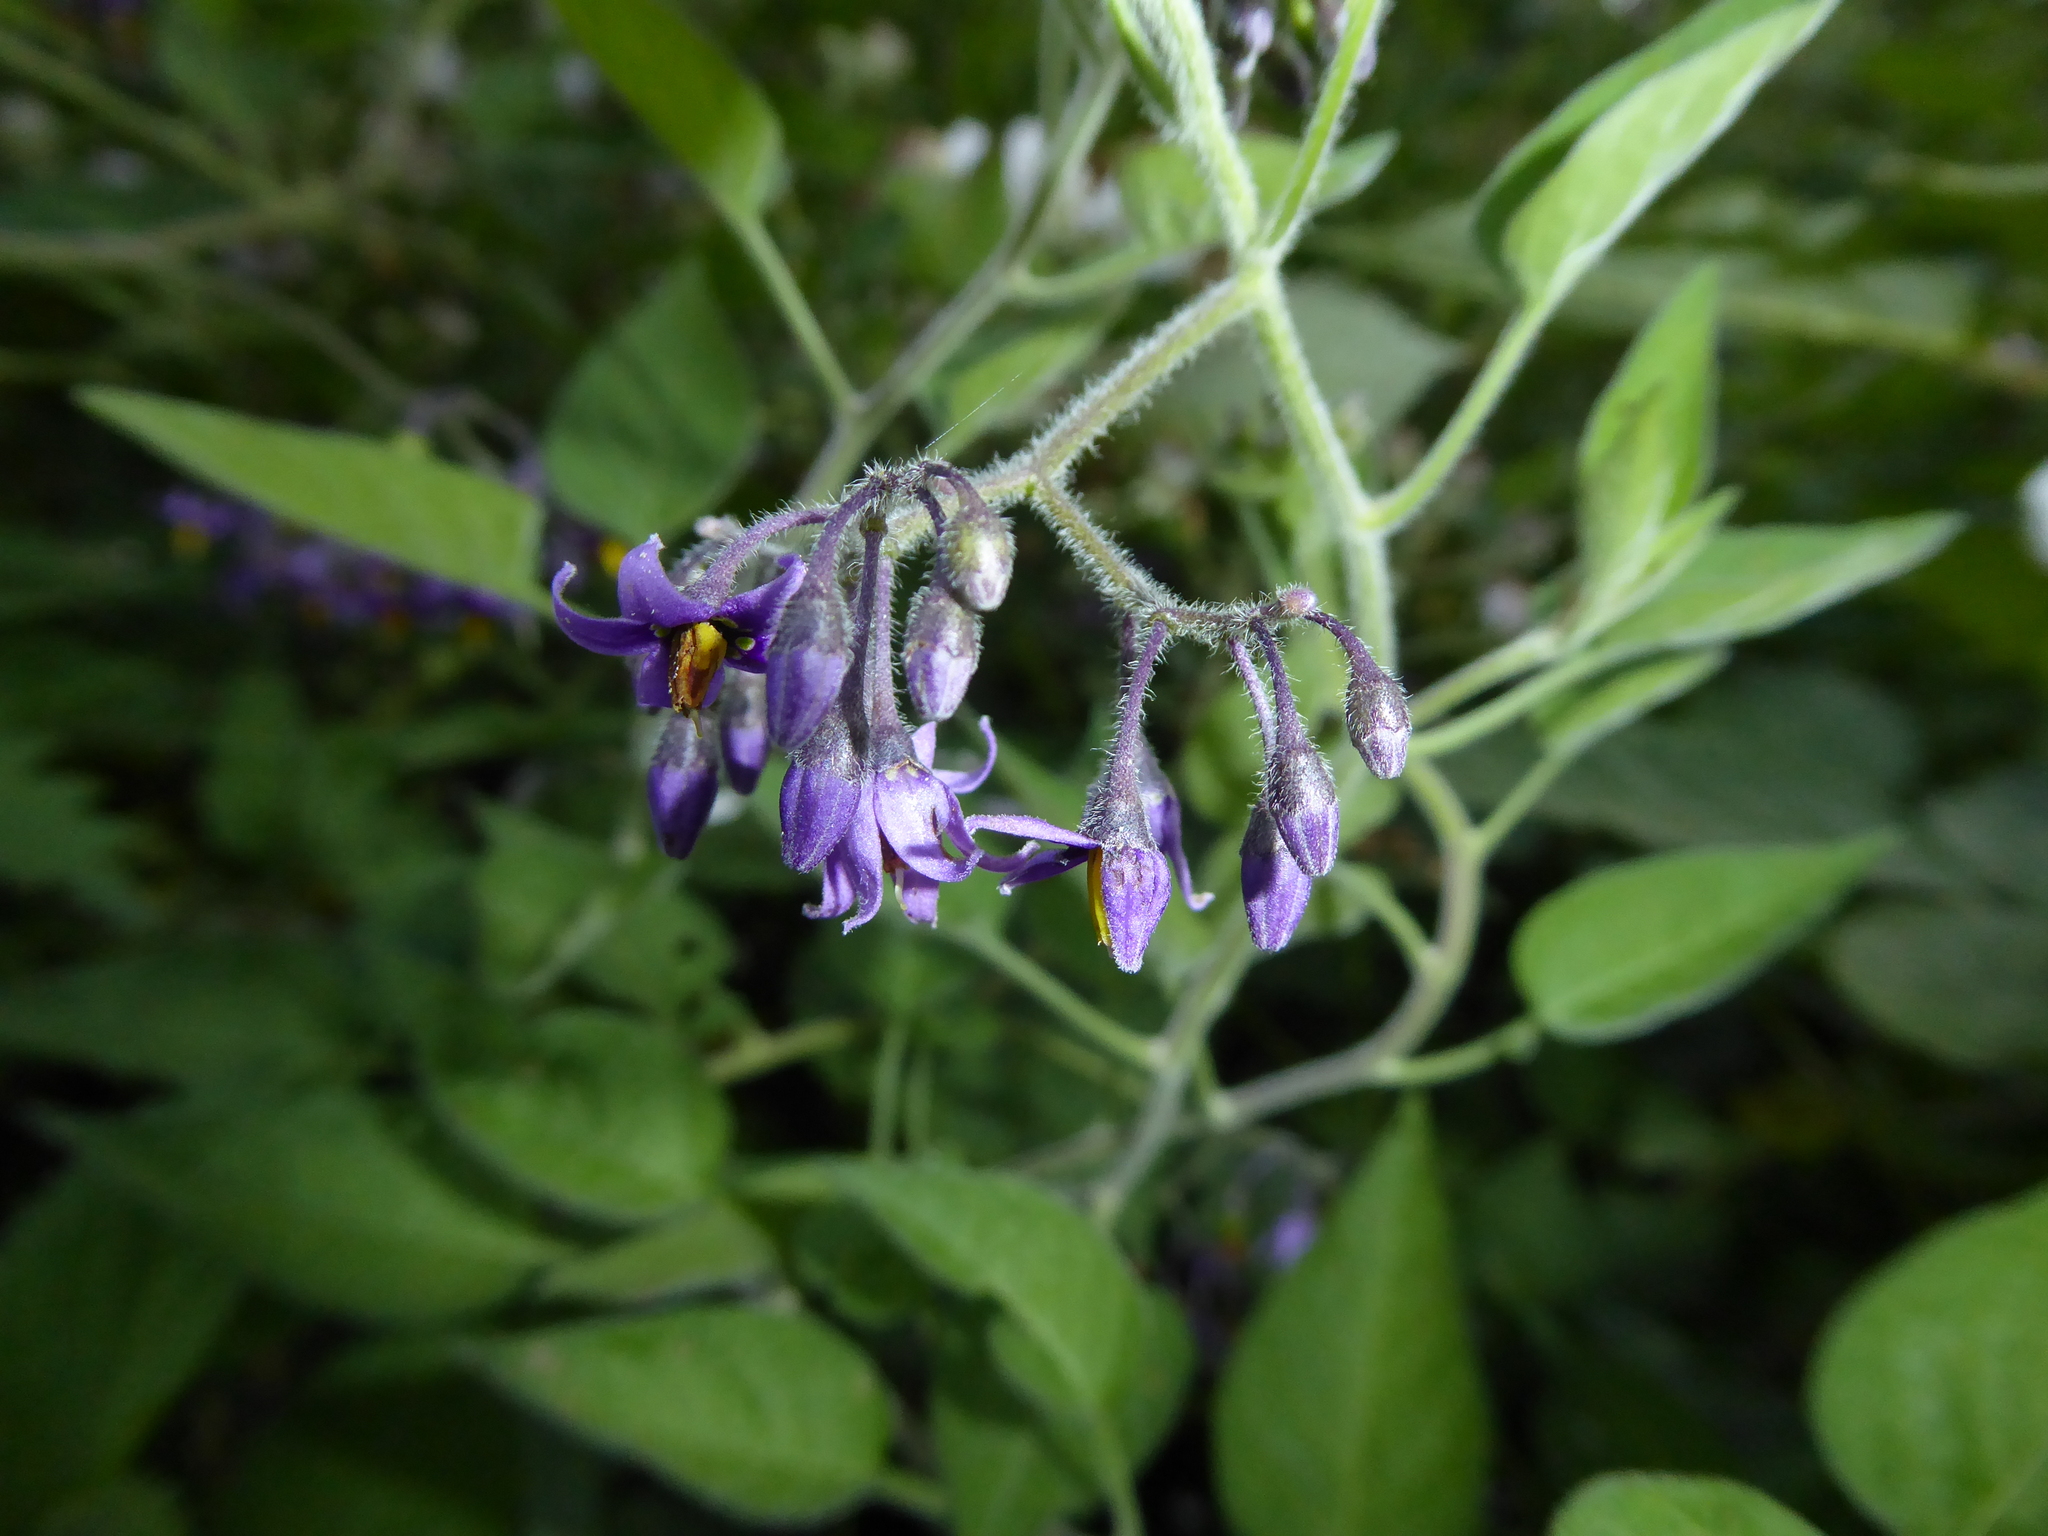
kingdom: Plantae
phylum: Tracheophyta
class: Magnoliopsida
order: Solanales
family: Solanaceae
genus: Solanum
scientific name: Solanum dulcamara
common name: Climbing nightshade
